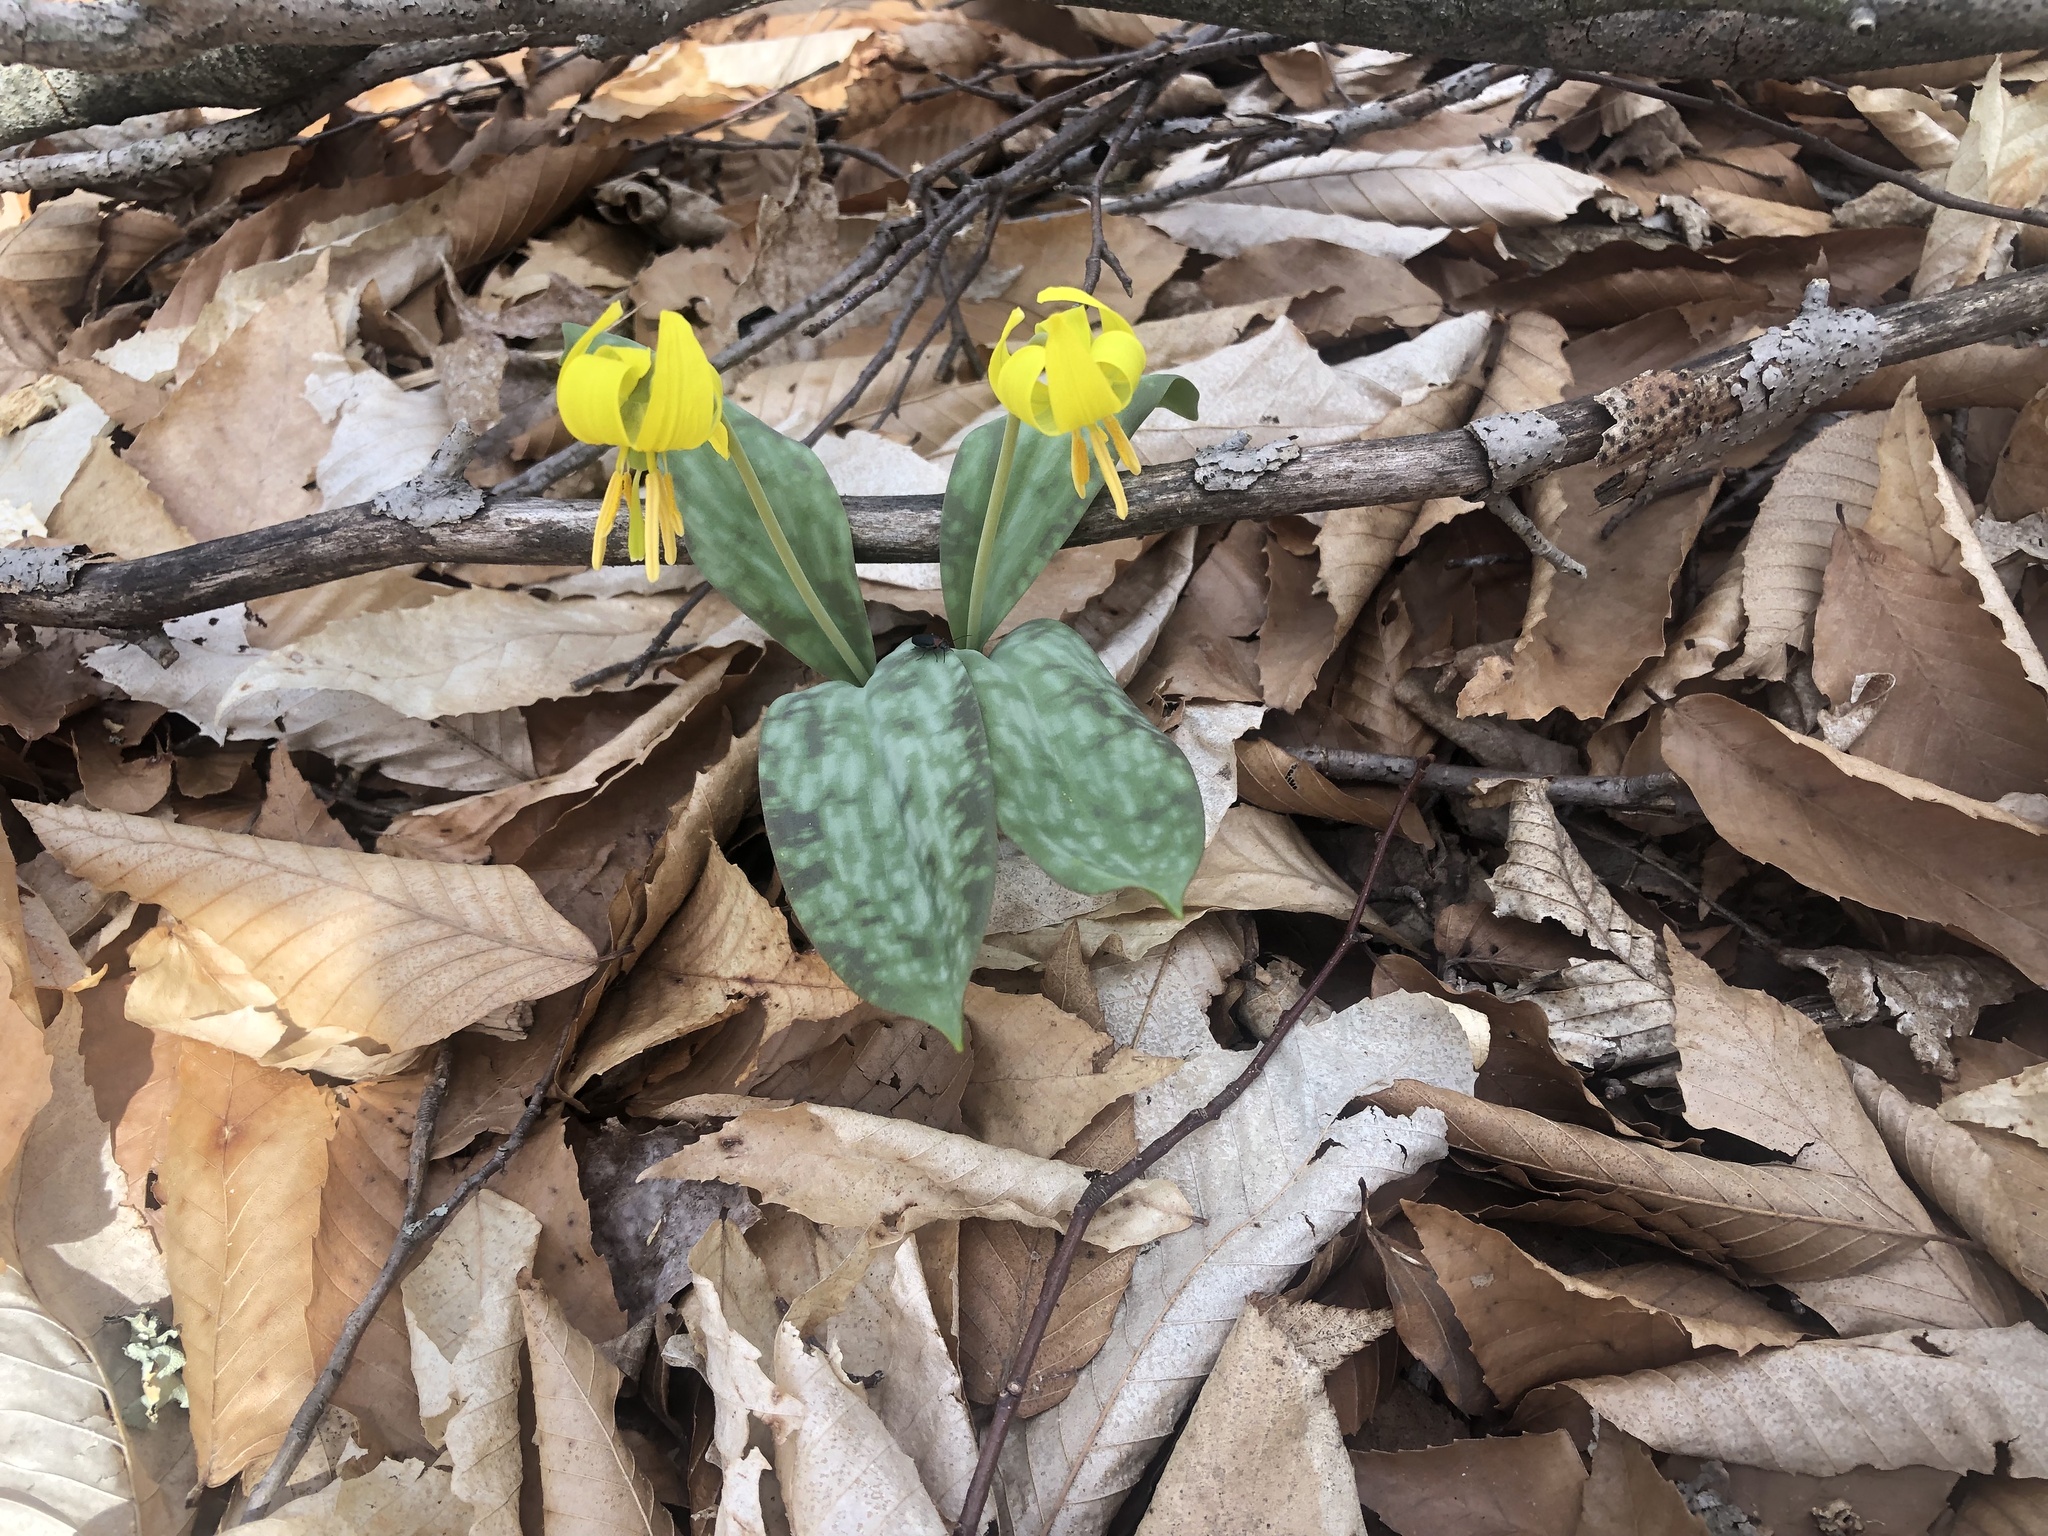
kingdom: Plantae
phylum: Tracheophyta
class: Liliopsida
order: Liliales
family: Liliaceae
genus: Erythronium
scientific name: Erythronium americanum
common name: Yellow adder's-tongue
